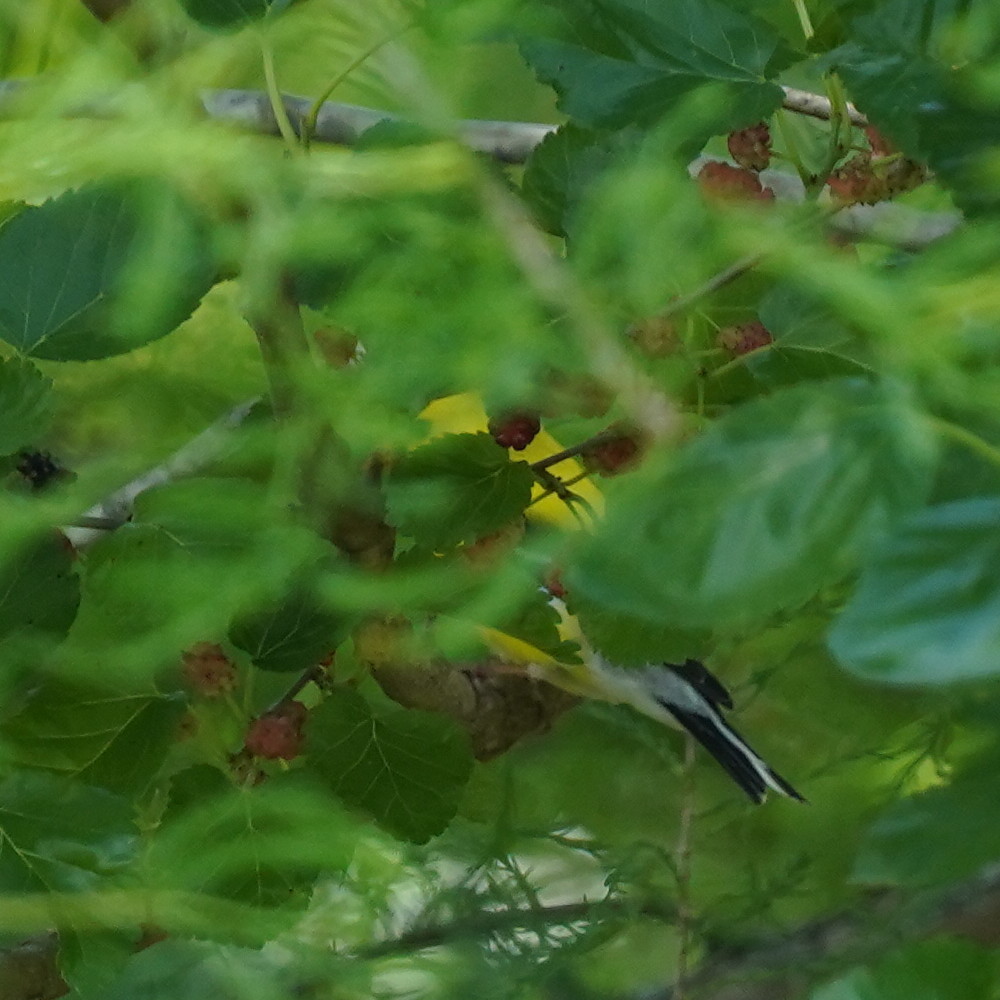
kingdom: Animalia
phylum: Chordata
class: Aves
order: Passeriformes
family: Fringillidae
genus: Spinus
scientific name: Spinus tristis
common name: American goldfinch
